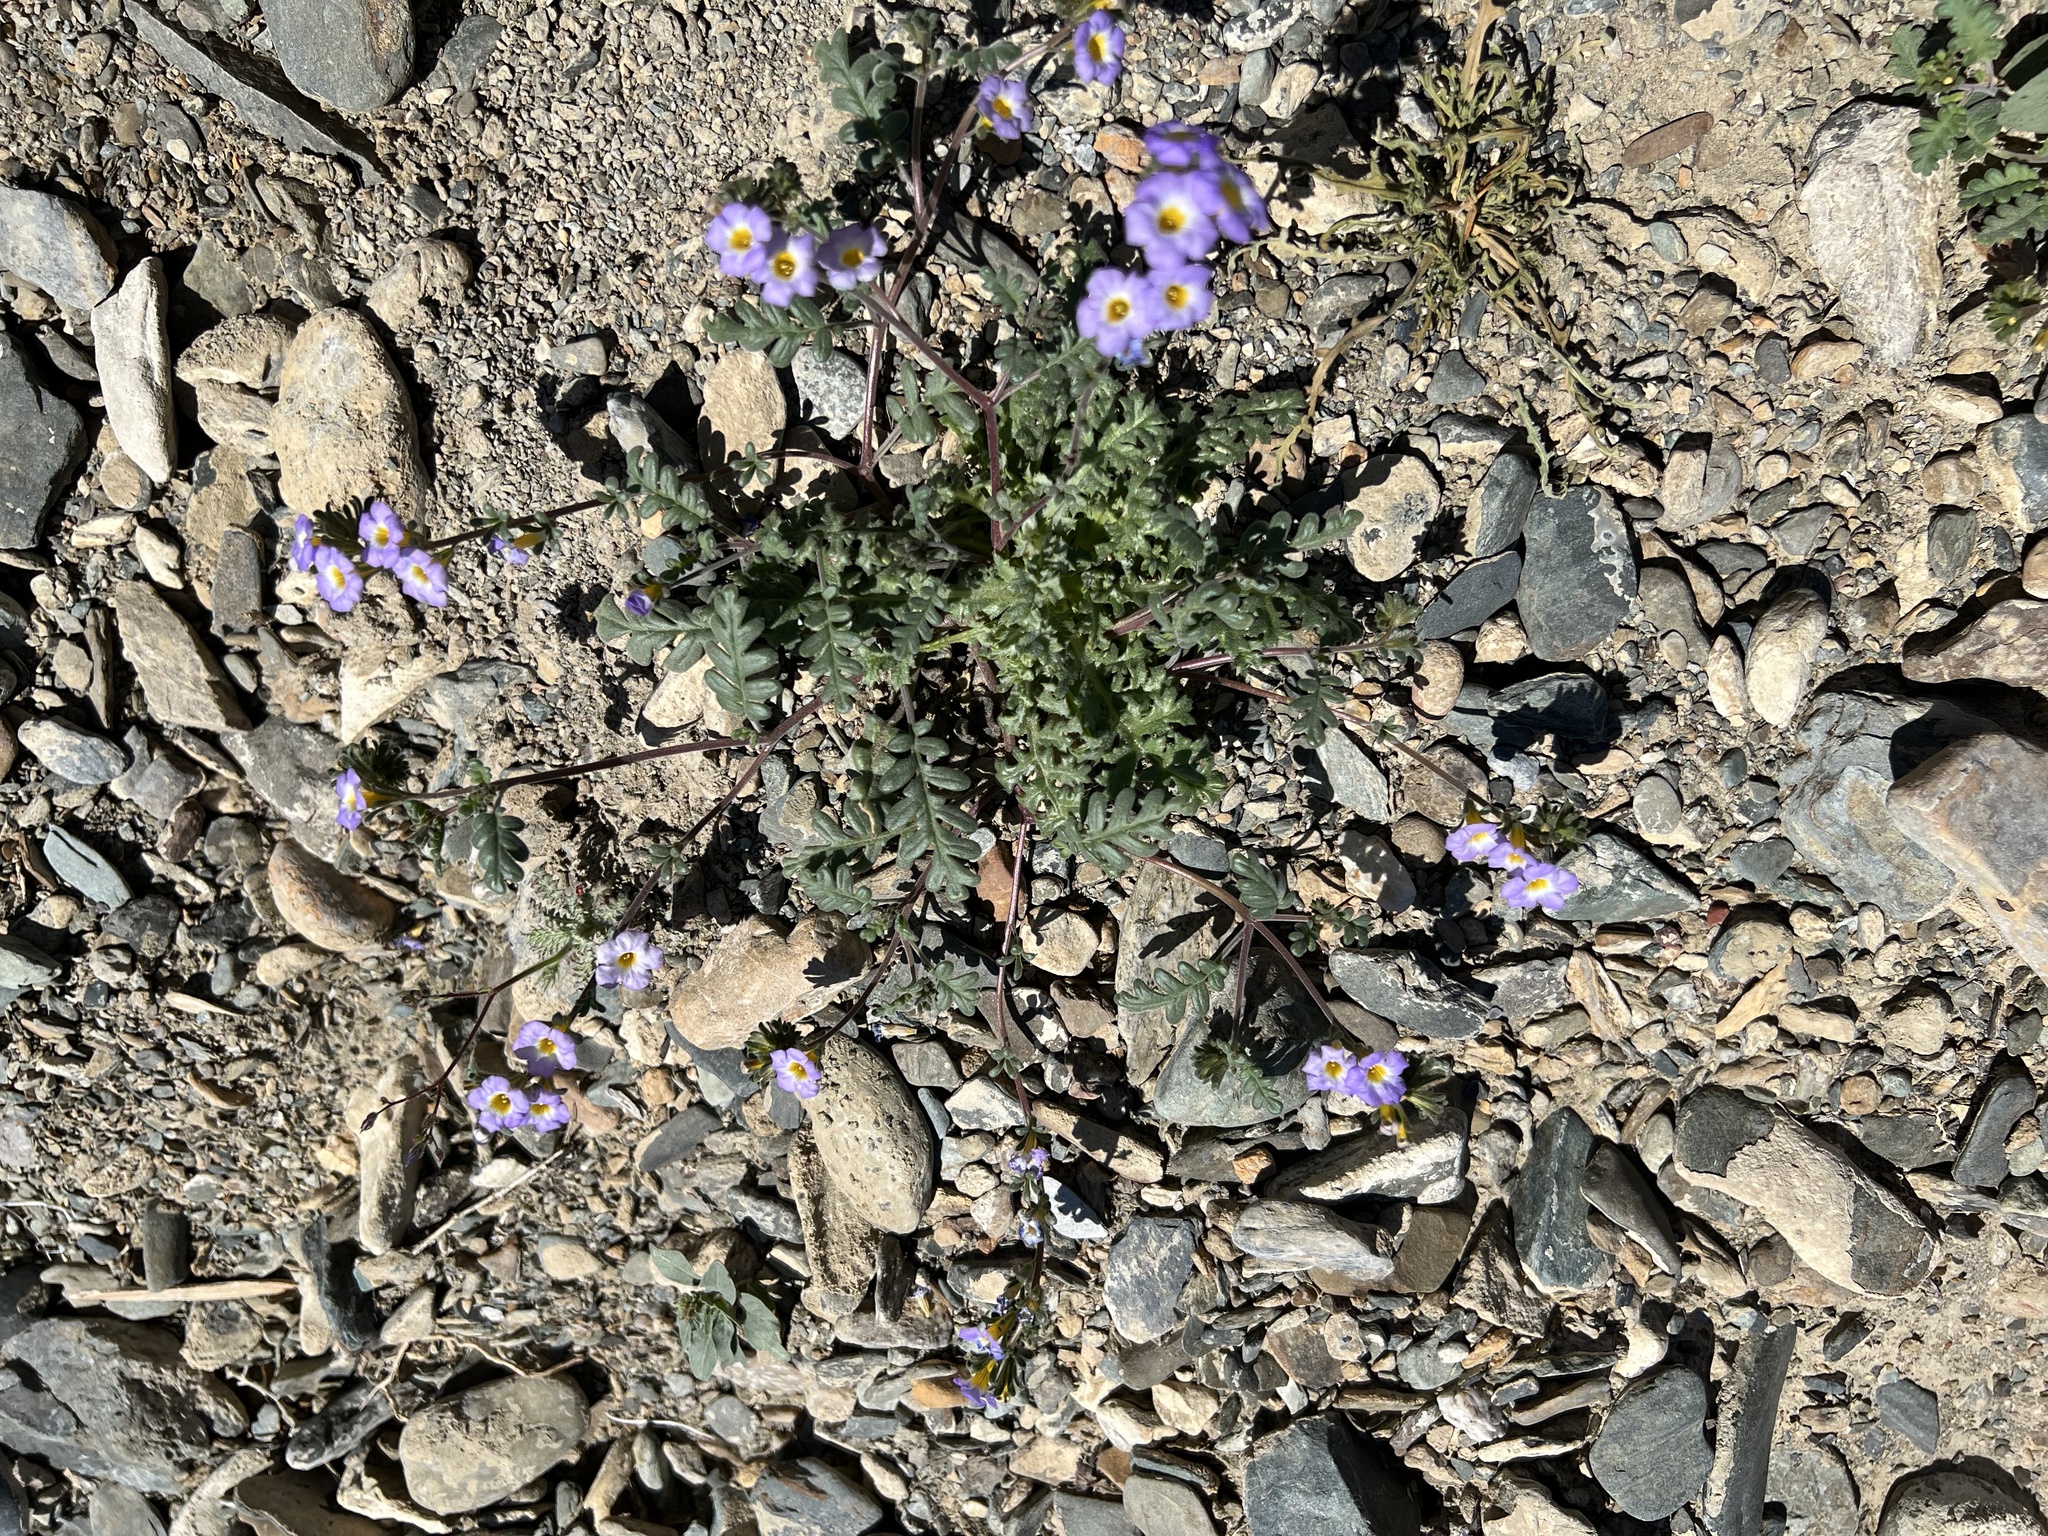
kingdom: Plantae
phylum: Tracheophyta
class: Magnoliopsida
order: Boraginales
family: Hydrophyllaceae
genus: Phacelia
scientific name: Phacelia fremontii
